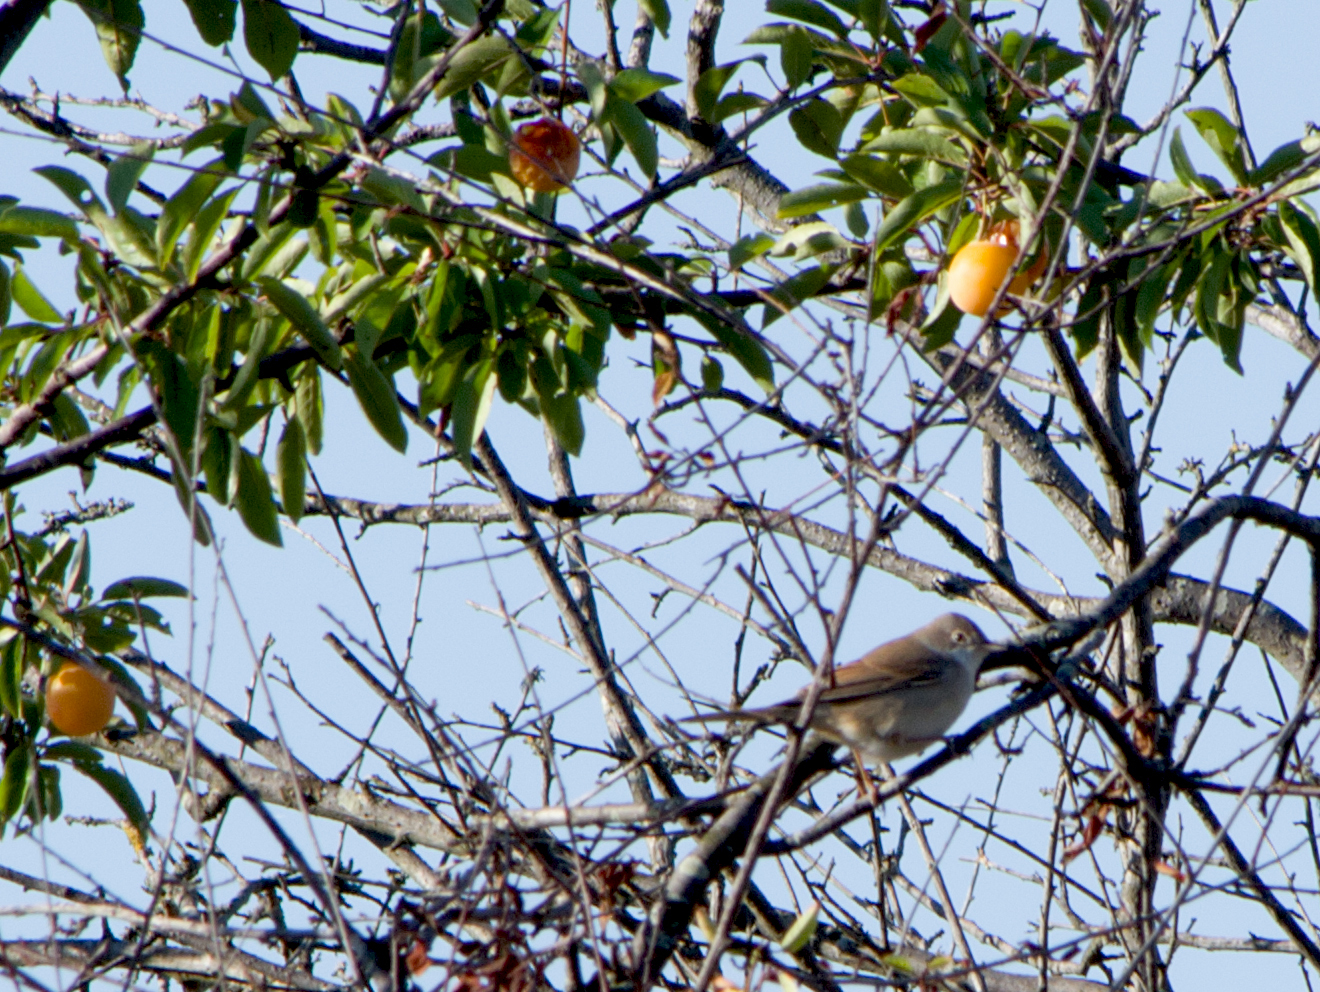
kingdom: Animalia
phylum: Chordata
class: Aves
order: Passeriformes
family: Sylviidae
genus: Sylvia
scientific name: Sylvia communis
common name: Common whitethroat
